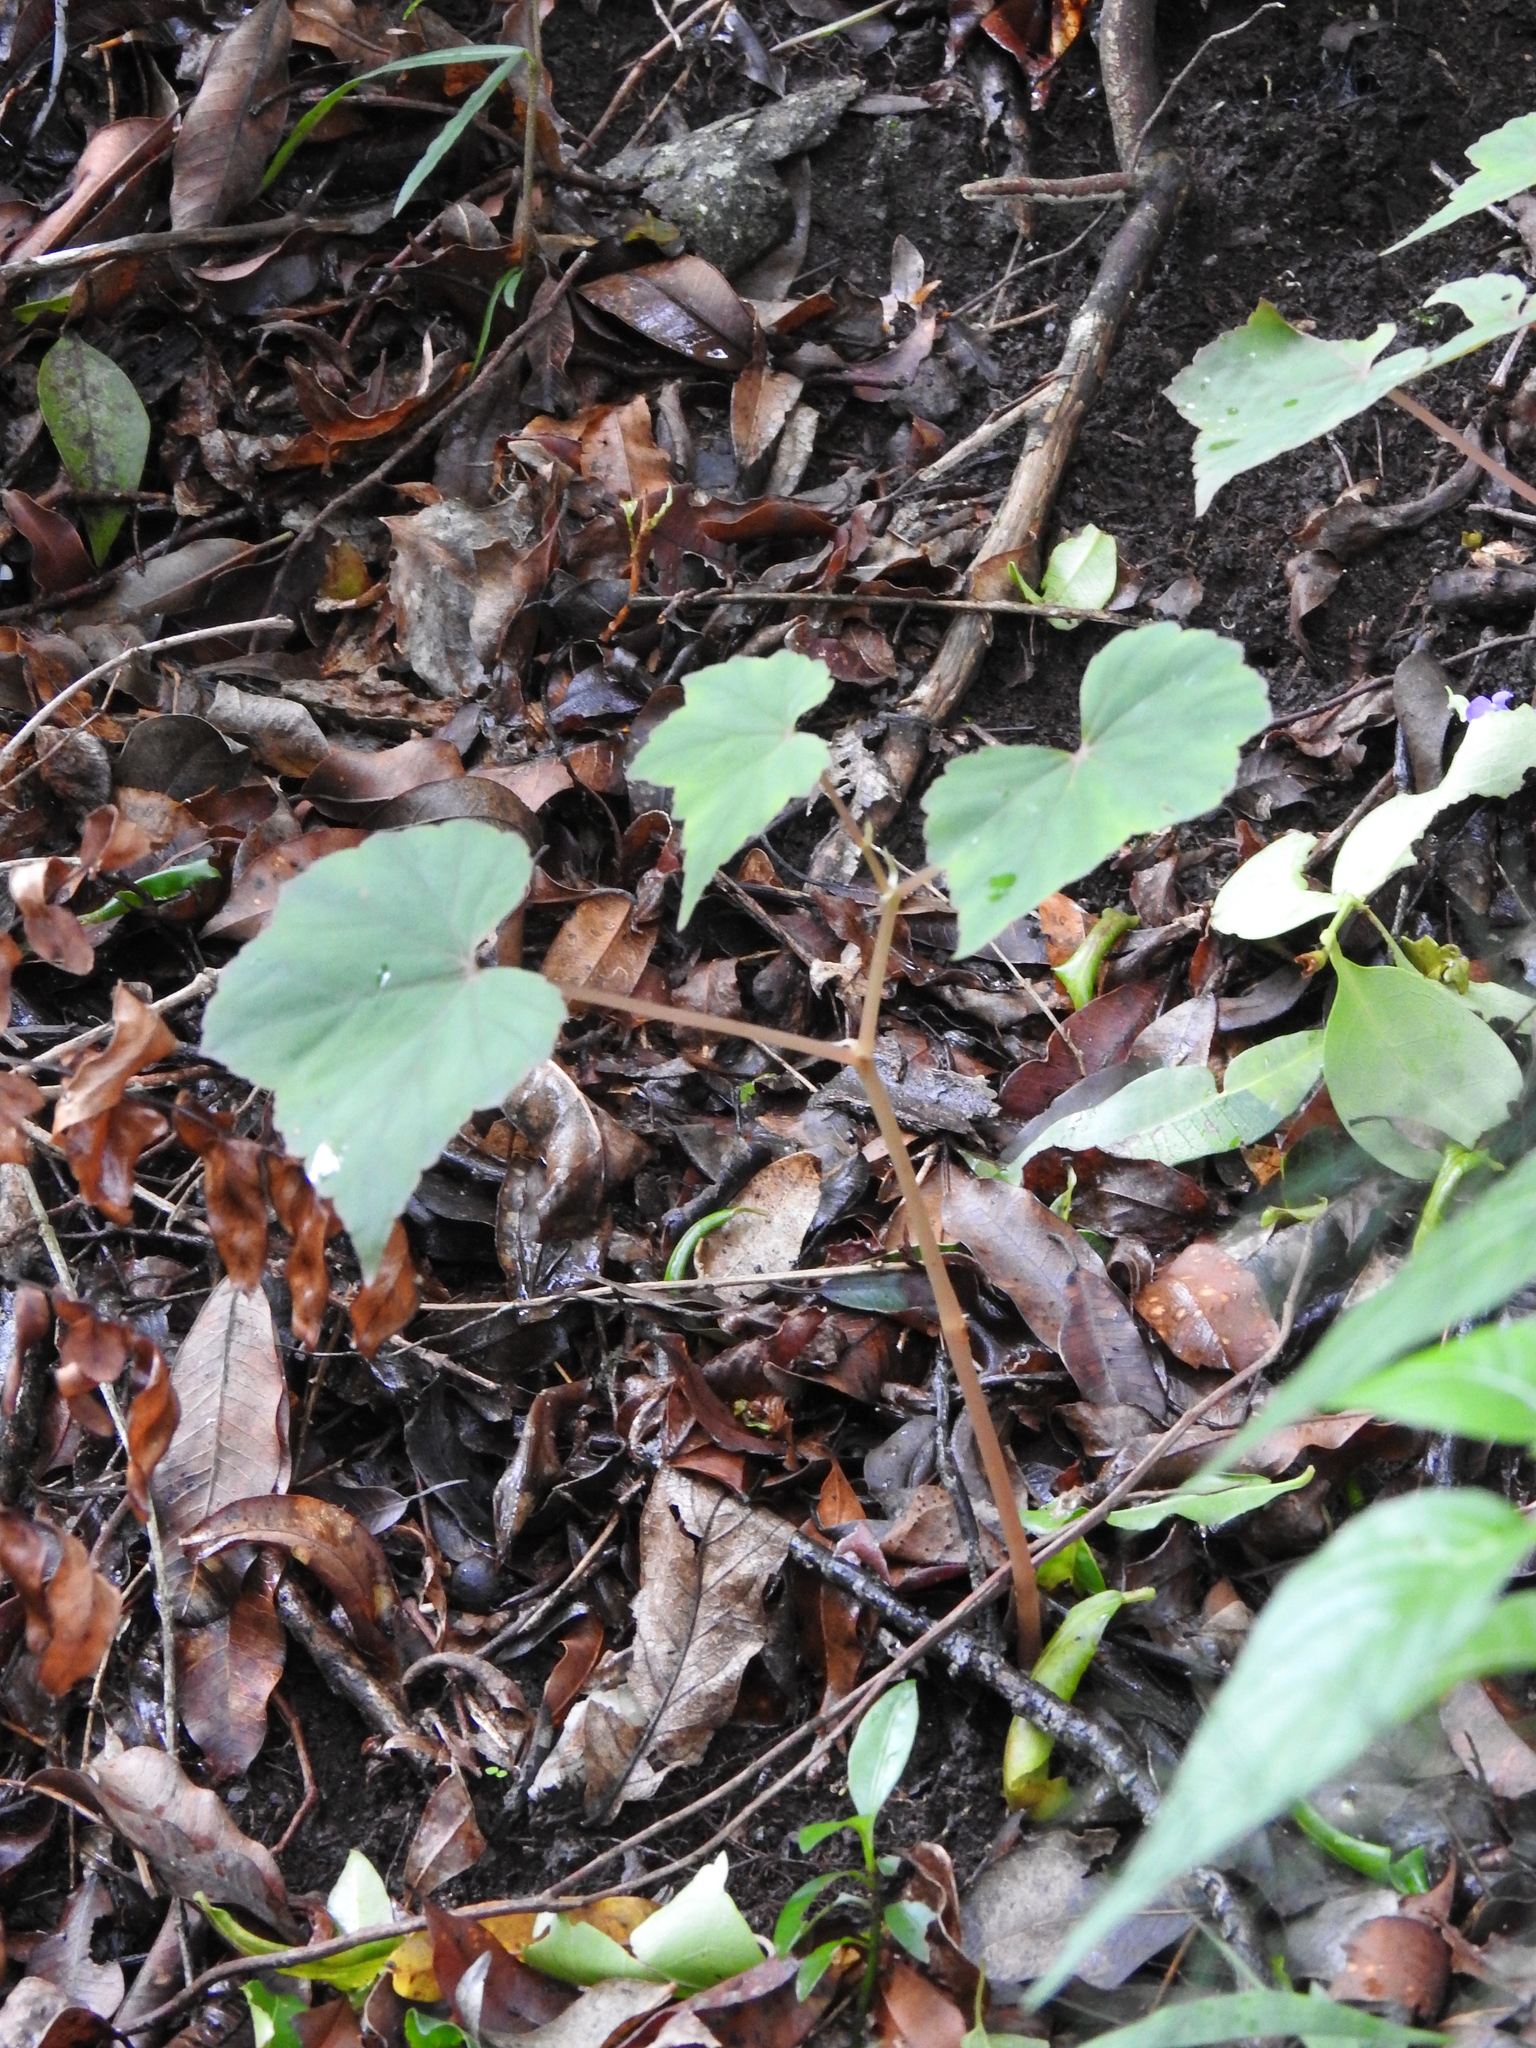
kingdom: Plantae
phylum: Tracheophyta
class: Magnoliopsida
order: Cucurbitales
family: Begoniaceae
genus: Begonia
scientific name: Begonia sutherlandii
